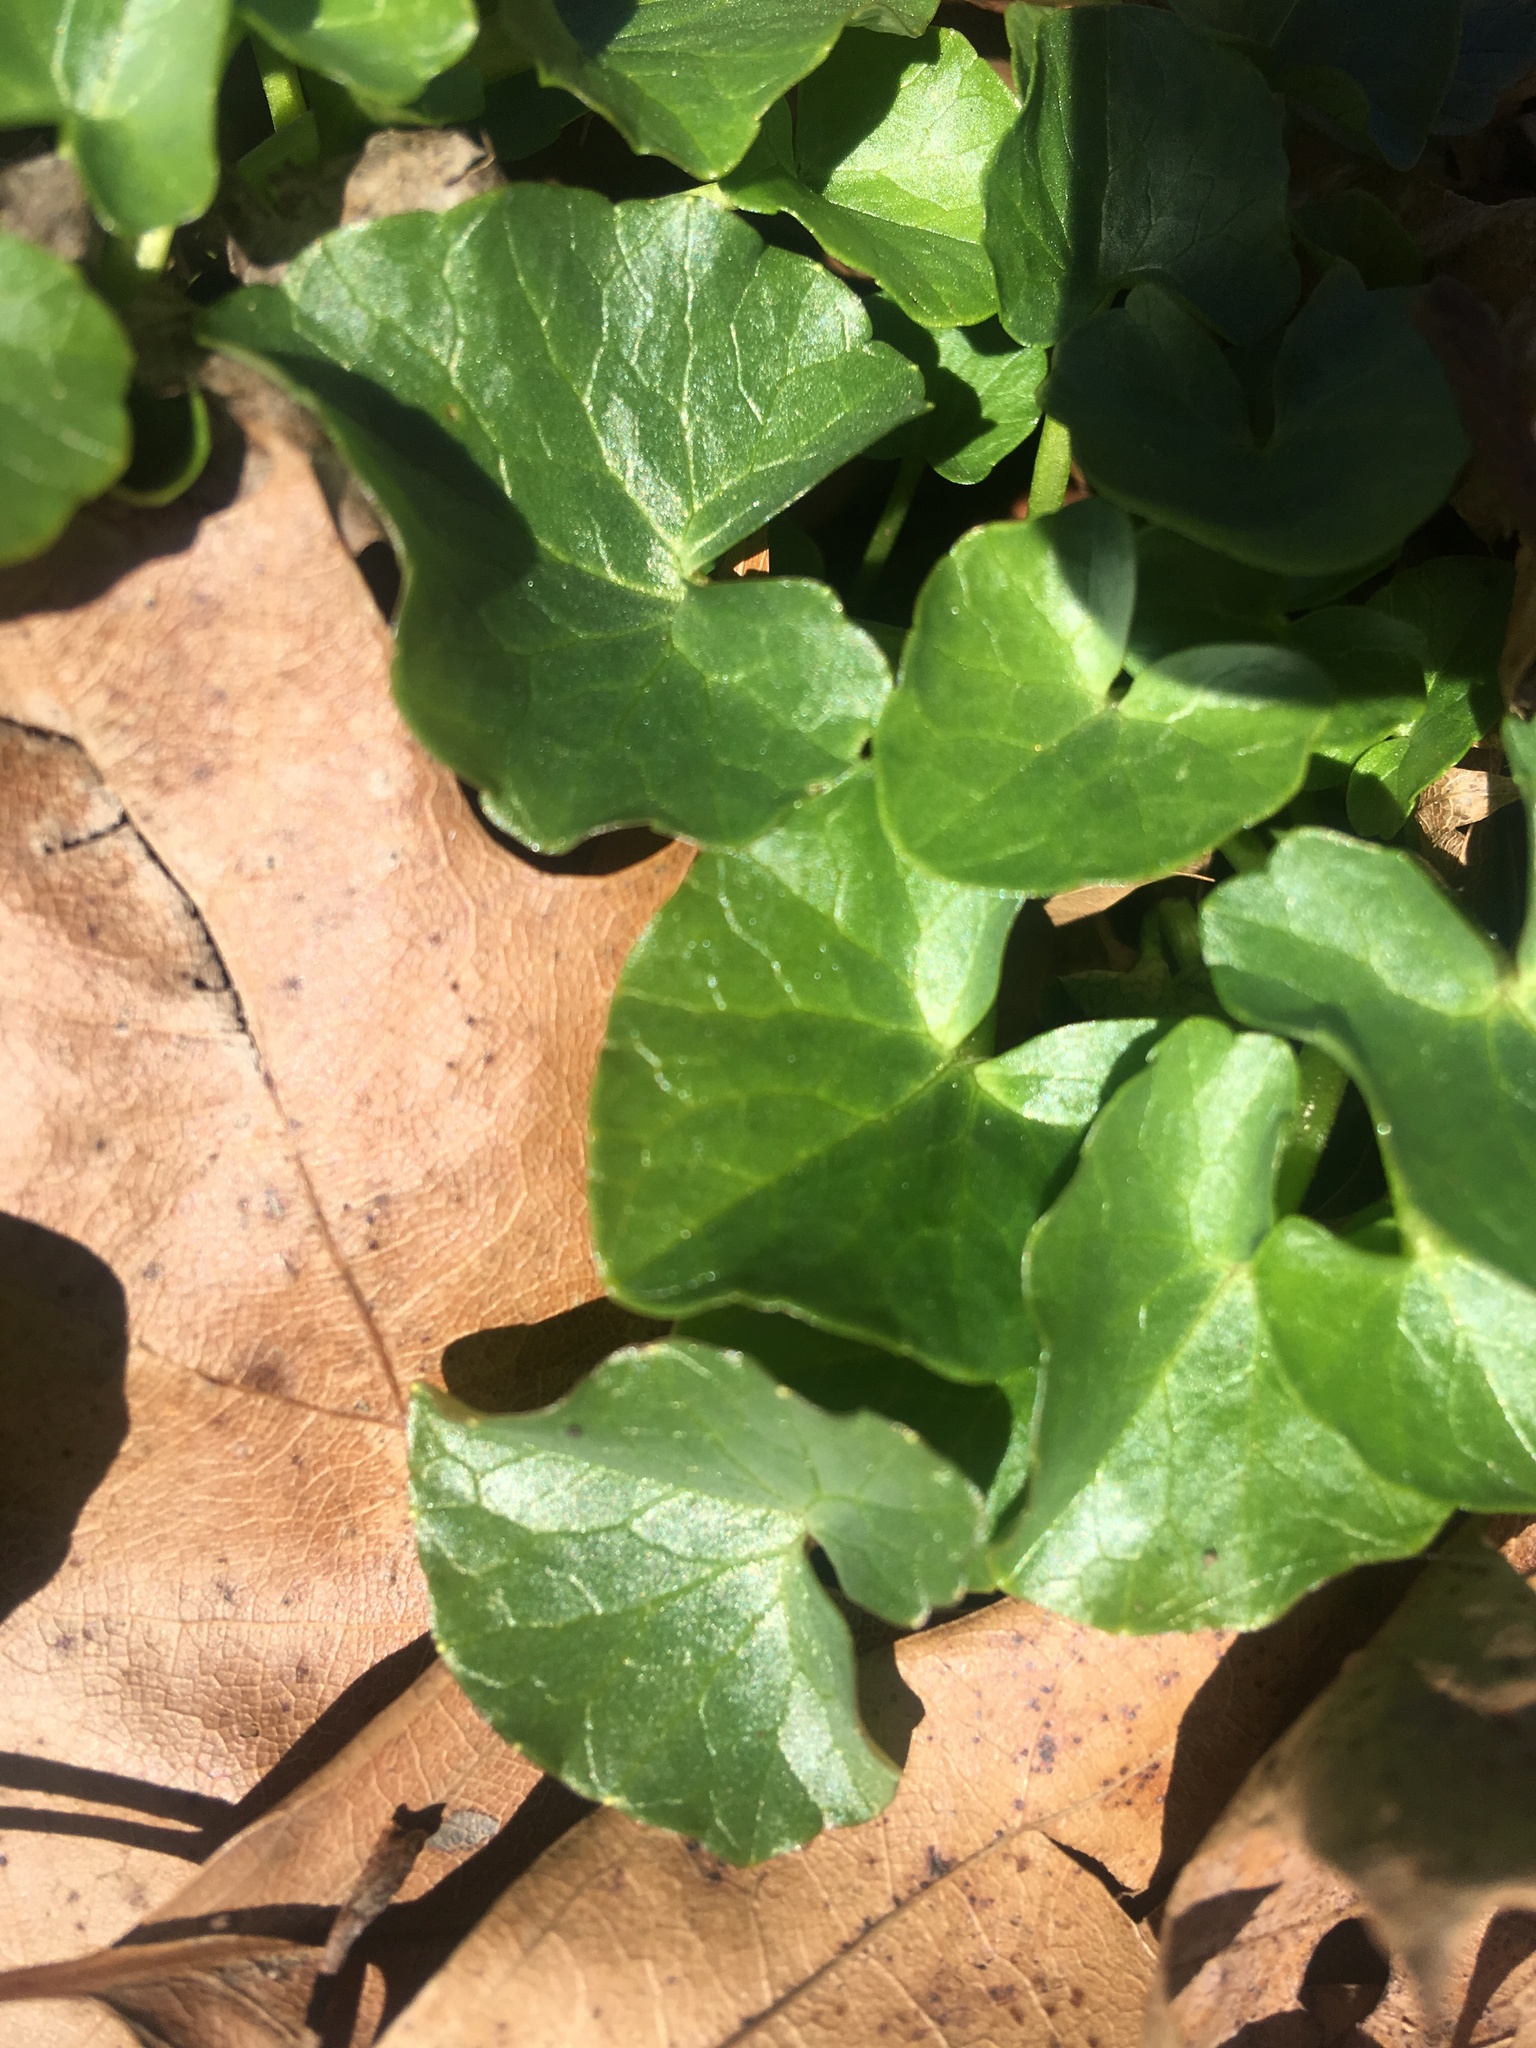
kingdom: Plantae
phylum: Tracheophyta
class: Magnoliopsida
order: Ranunculales
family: Ranunculaceae
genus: Ficaria
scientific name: Ficaria verna
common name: Lesser celandine
